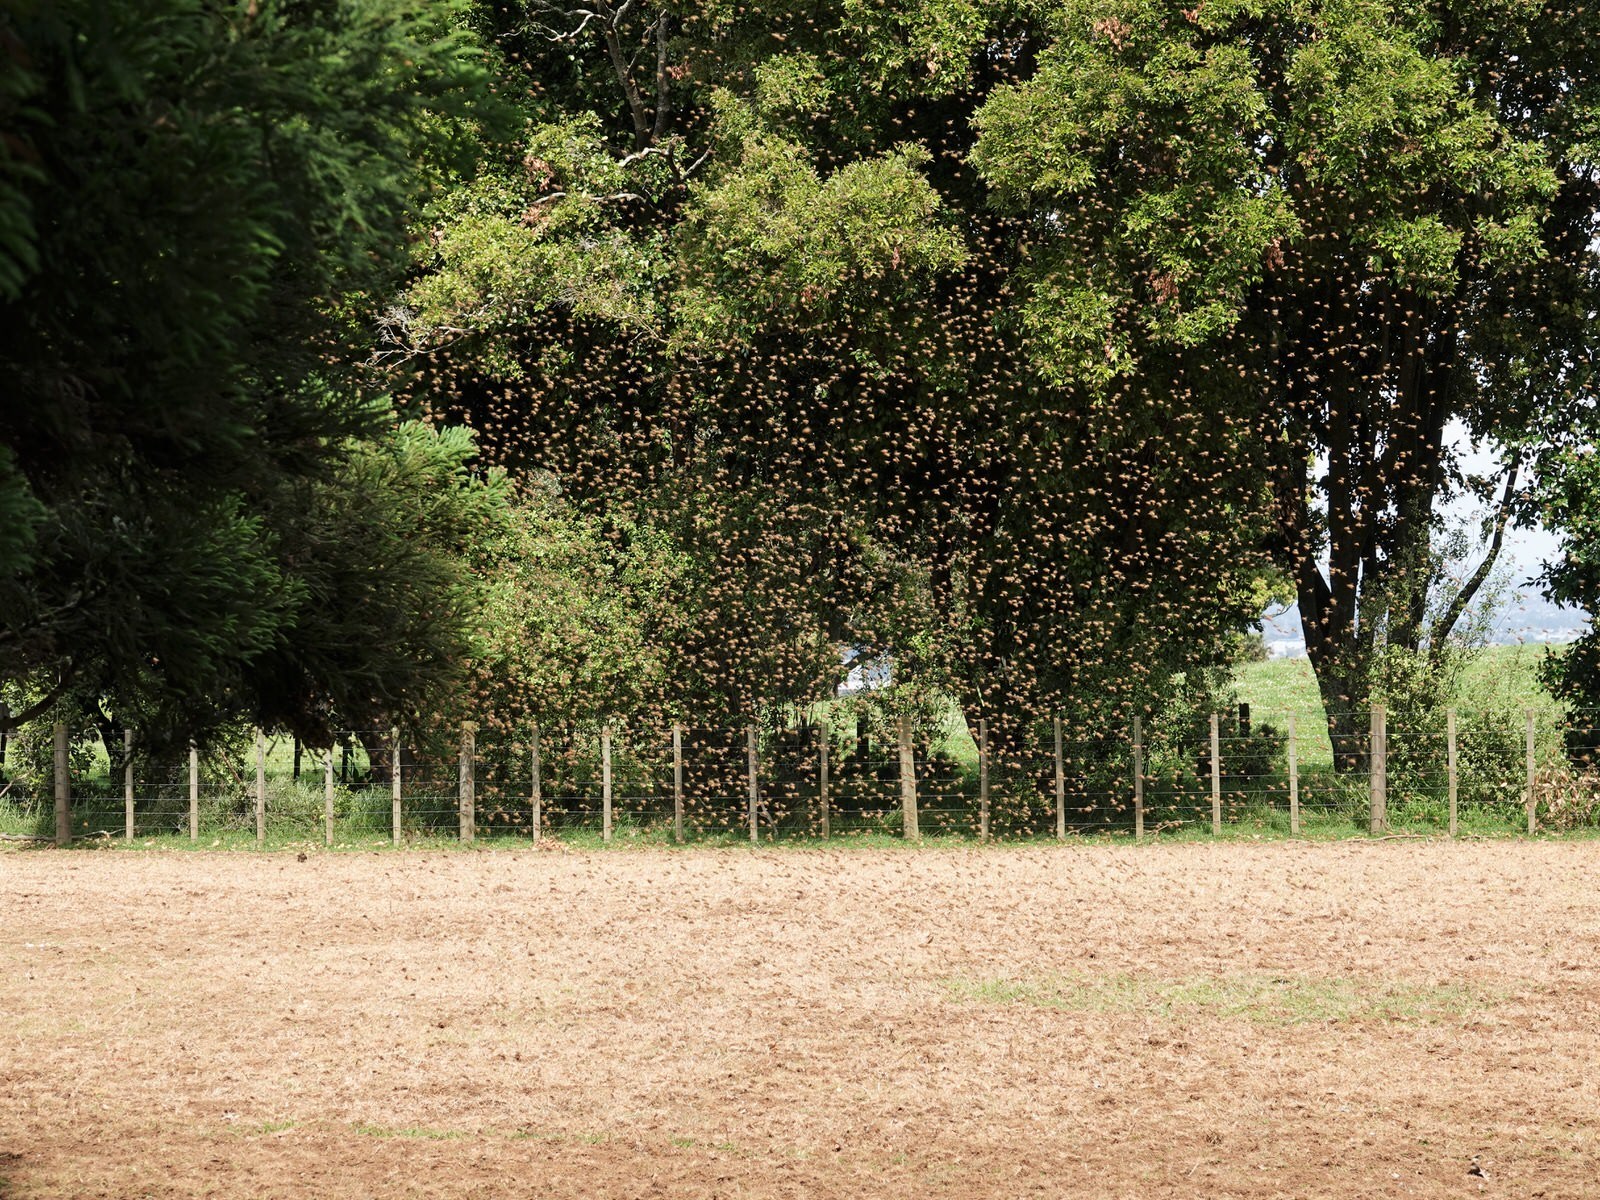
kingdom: Animalia
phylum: Arthropoda
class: Insecta
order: Hymenoptera
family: Apidae
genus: Apis
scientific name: Apis mellifera
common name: Honey bee
